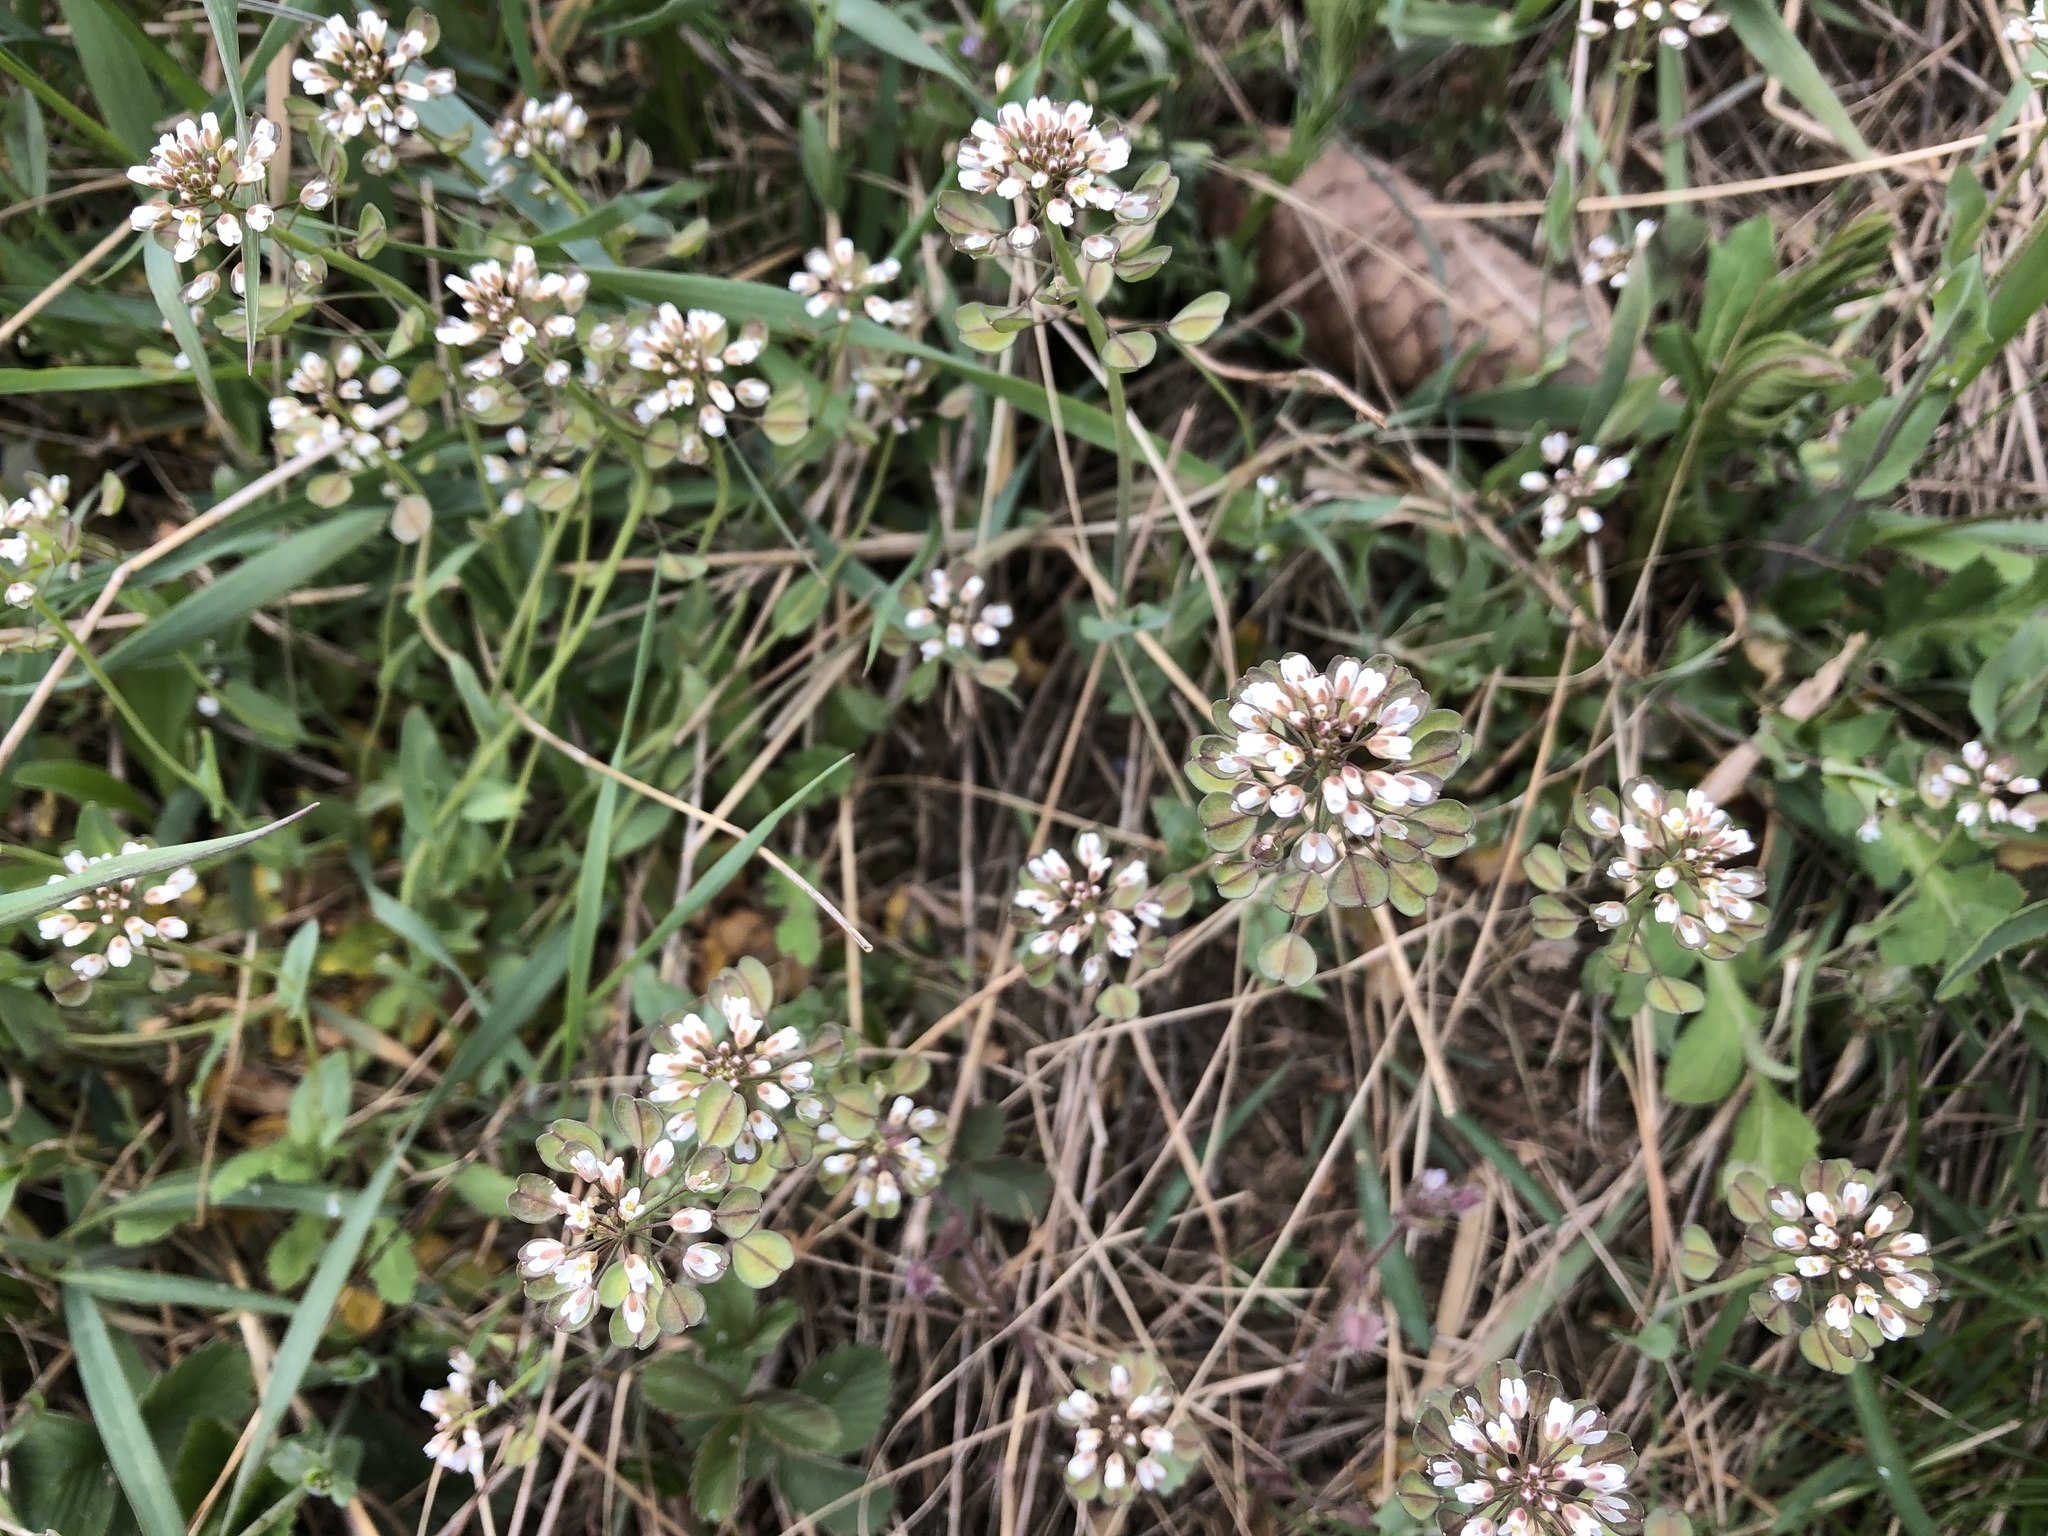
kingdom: Plantae
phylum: Tracheophyta
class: Magnoliopsida
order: Brassicales
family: Brassicaceae
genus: Noccaea
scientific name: Noccaea perfoliata
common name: Perfoliate pennycress
